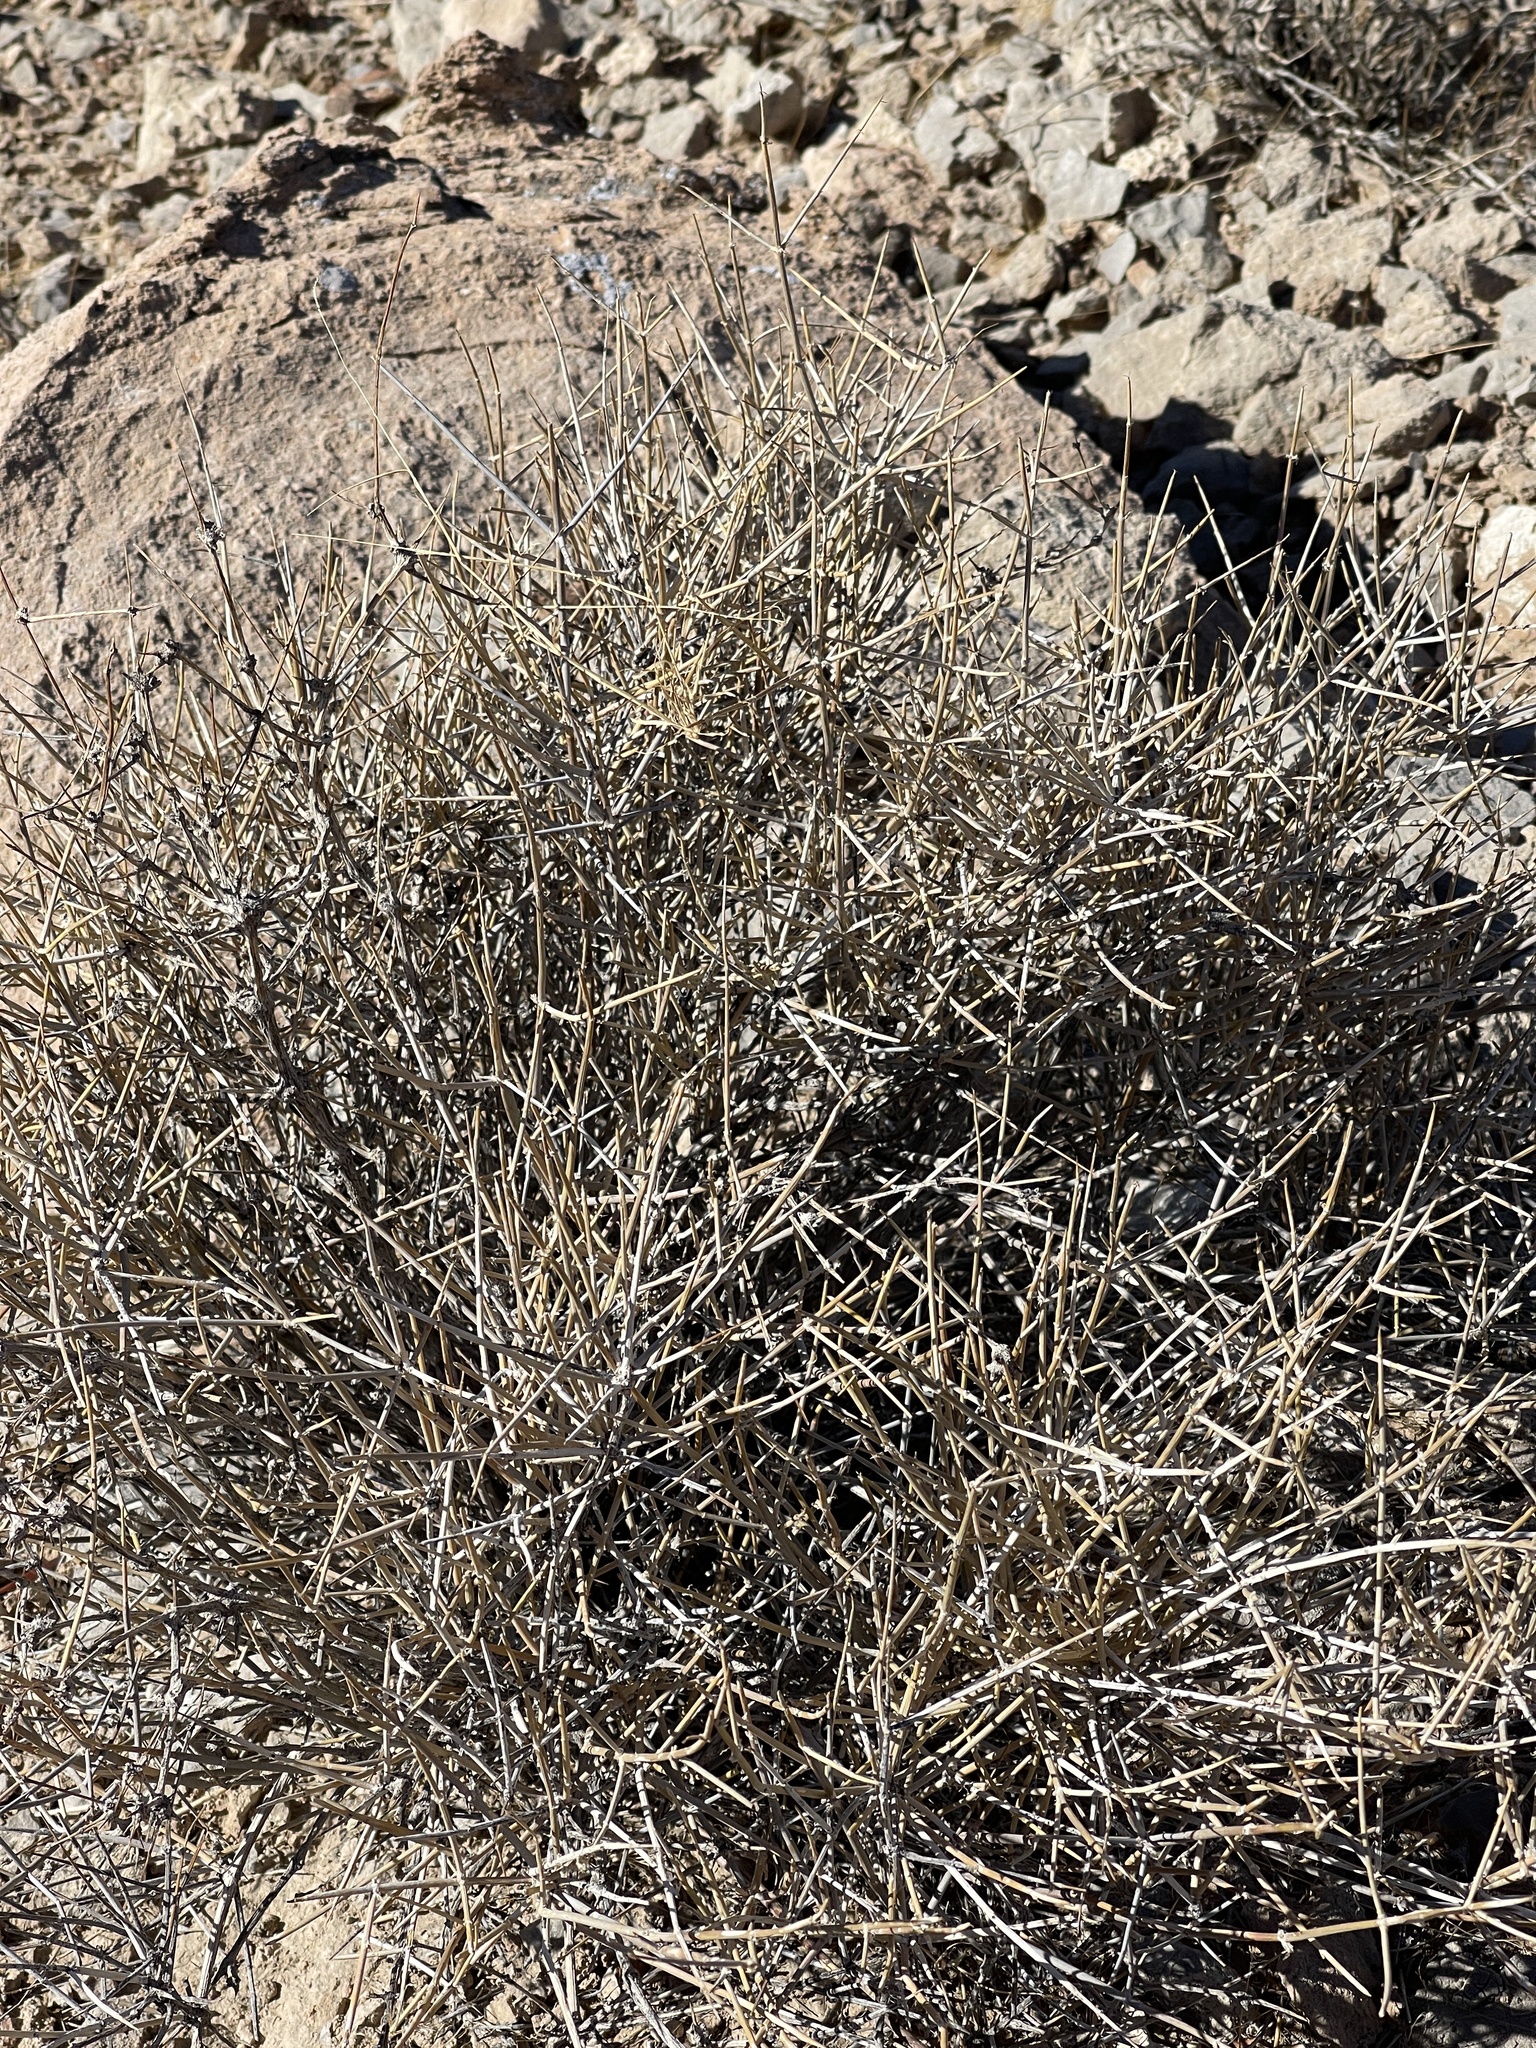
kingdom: Plantae
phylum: Tracheophyta
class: Gnetopsida
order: Ephedrales
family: Ephedraceae
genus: Ephedra
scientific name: Ephedra nevadensis
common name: Gray ephedra
